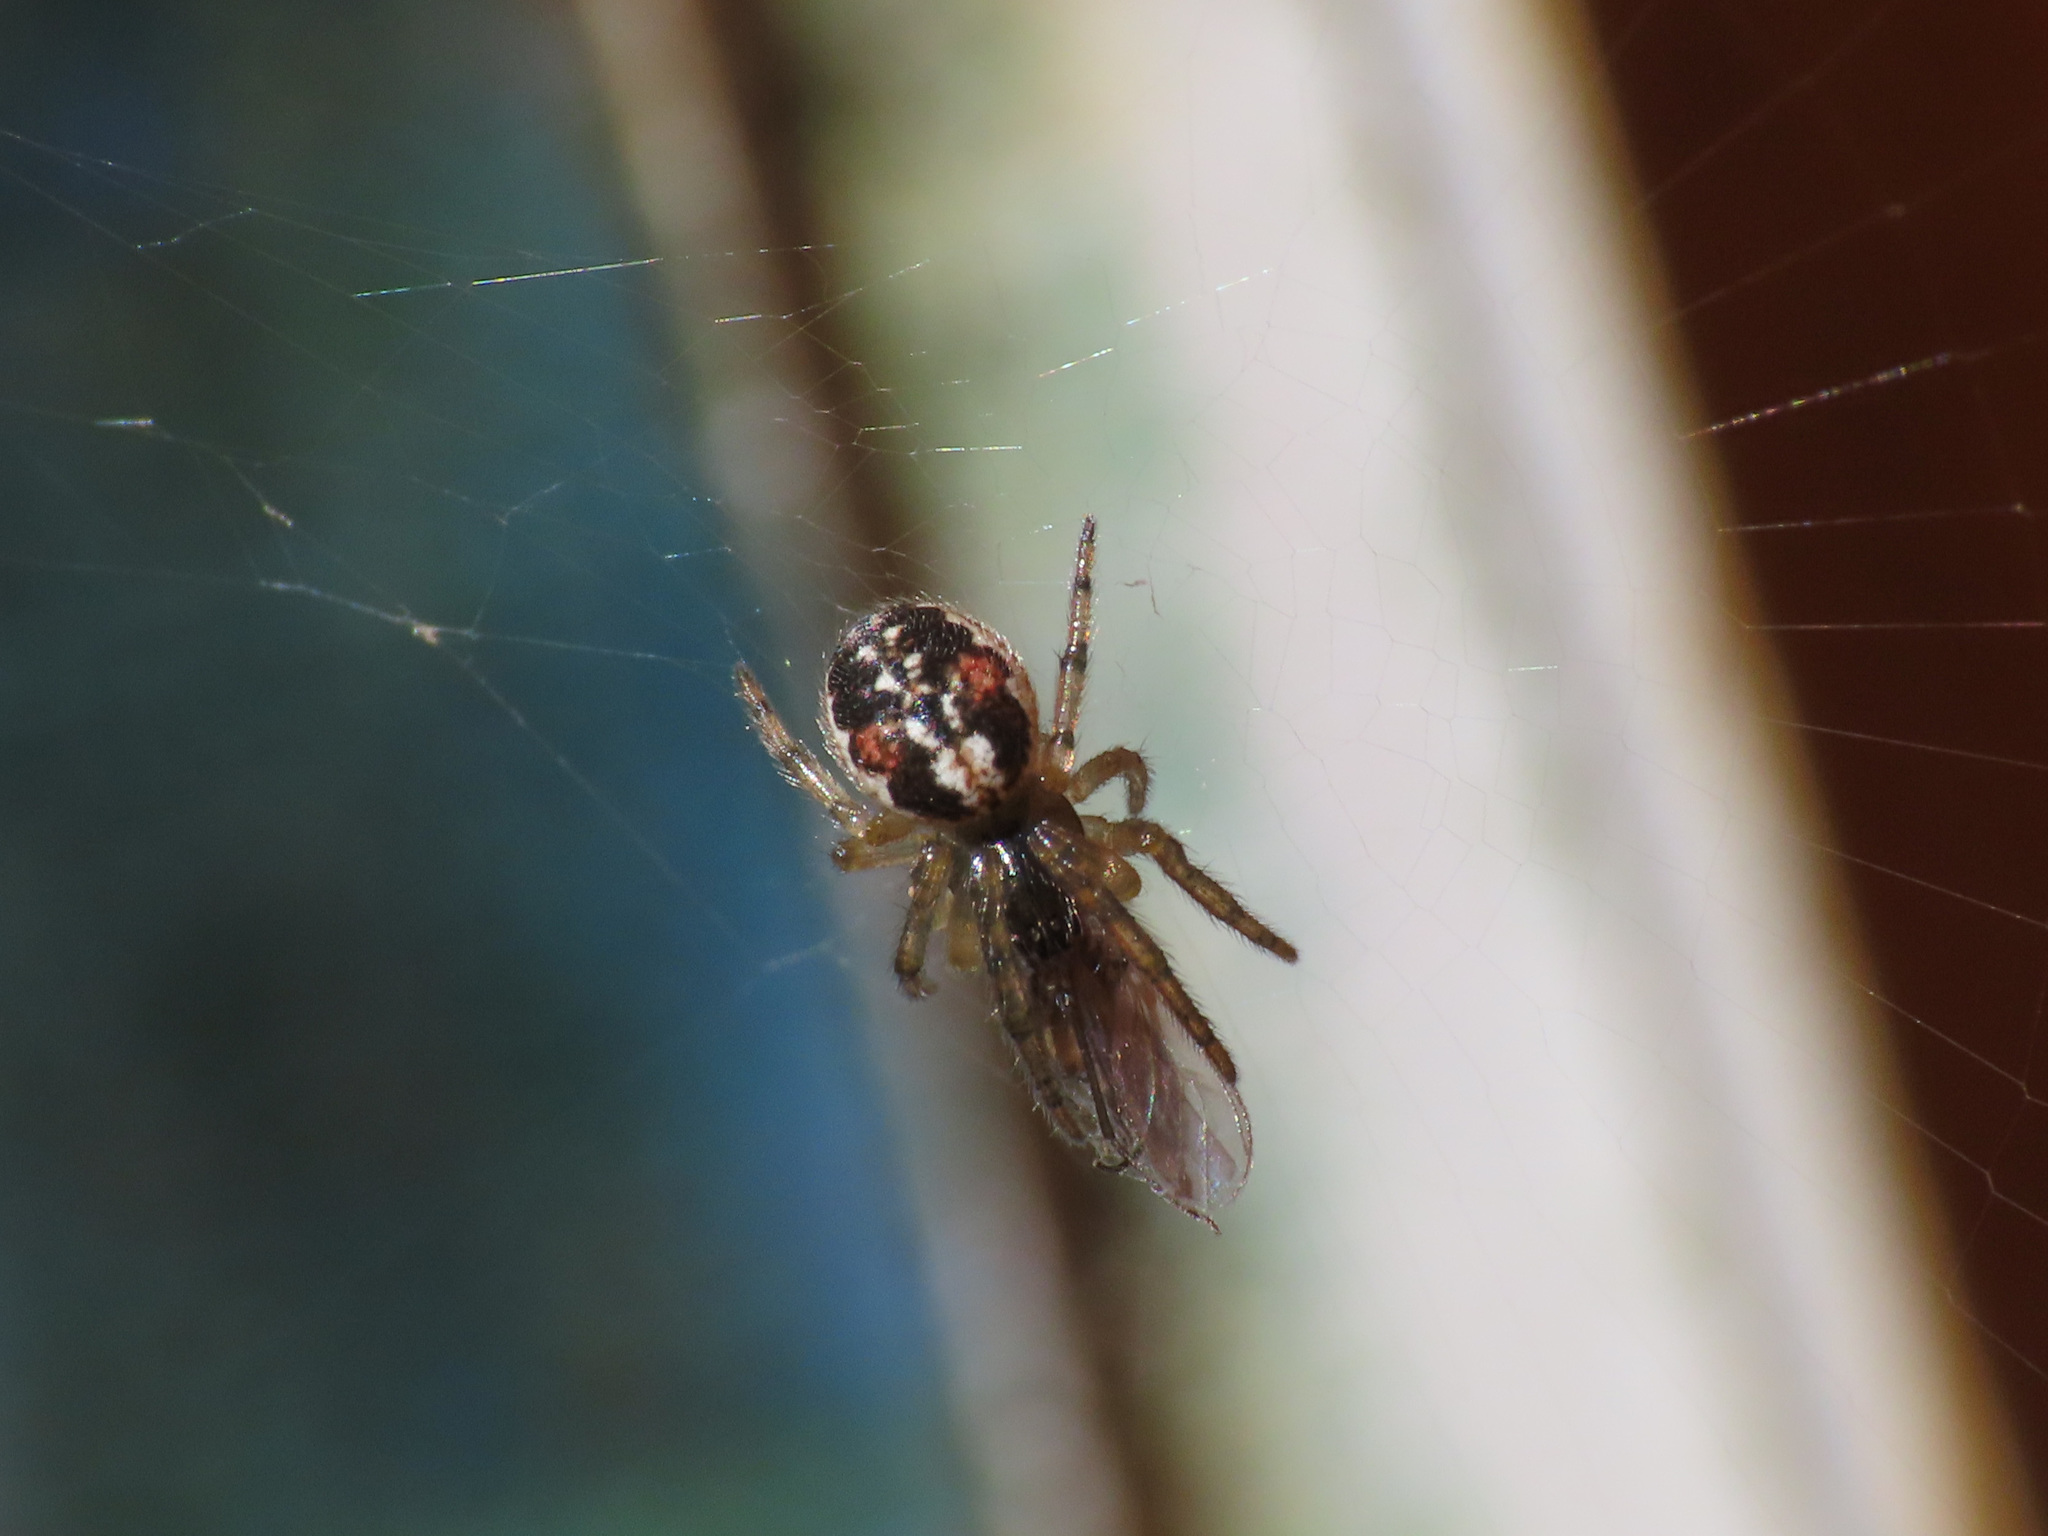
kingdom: Animalia
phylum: Arthropoda
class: Arachnida
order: Araneae
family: Araneidae
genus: Zygiella
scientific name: Zygiella montana
